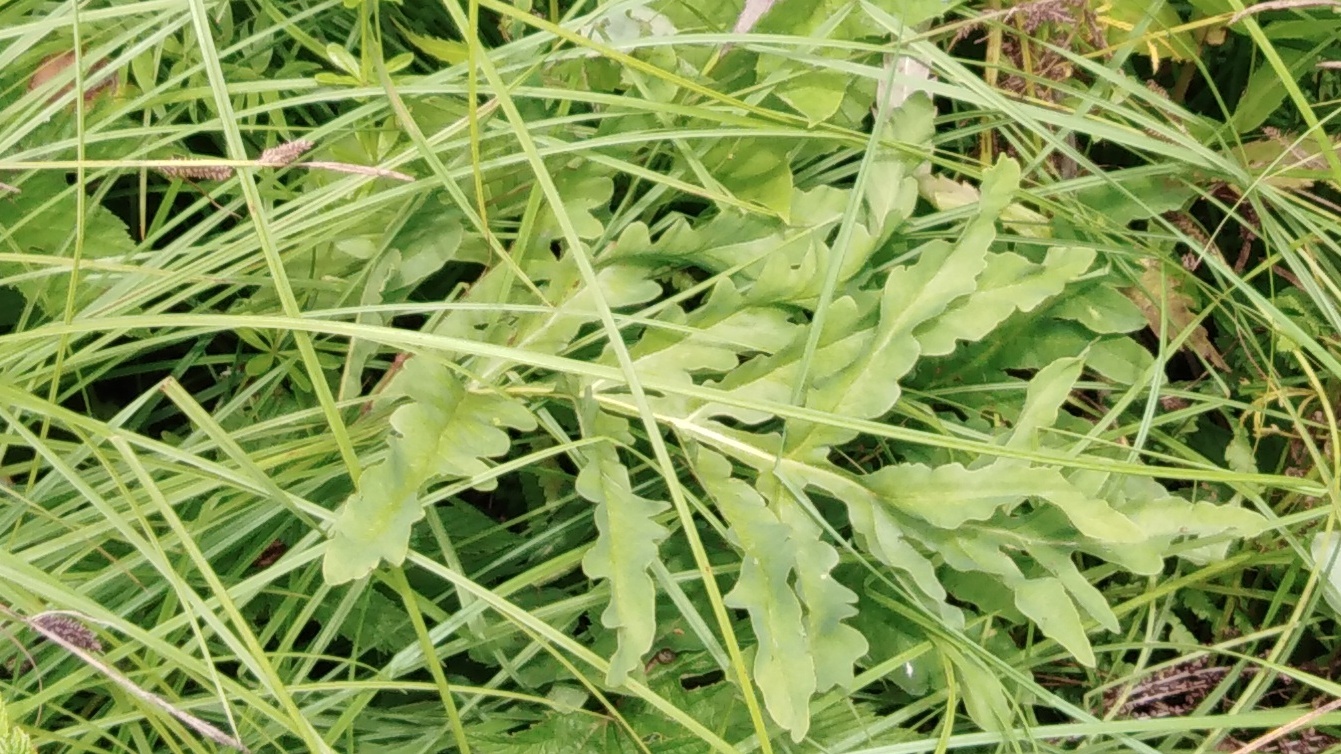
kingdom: Plantae
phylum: Tracheophyta
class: Polypodiopsida
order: Polypodiales
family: Onocleaceae
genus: Onoclea
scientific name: Onoclea sensibilis
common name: Sensitive fern
